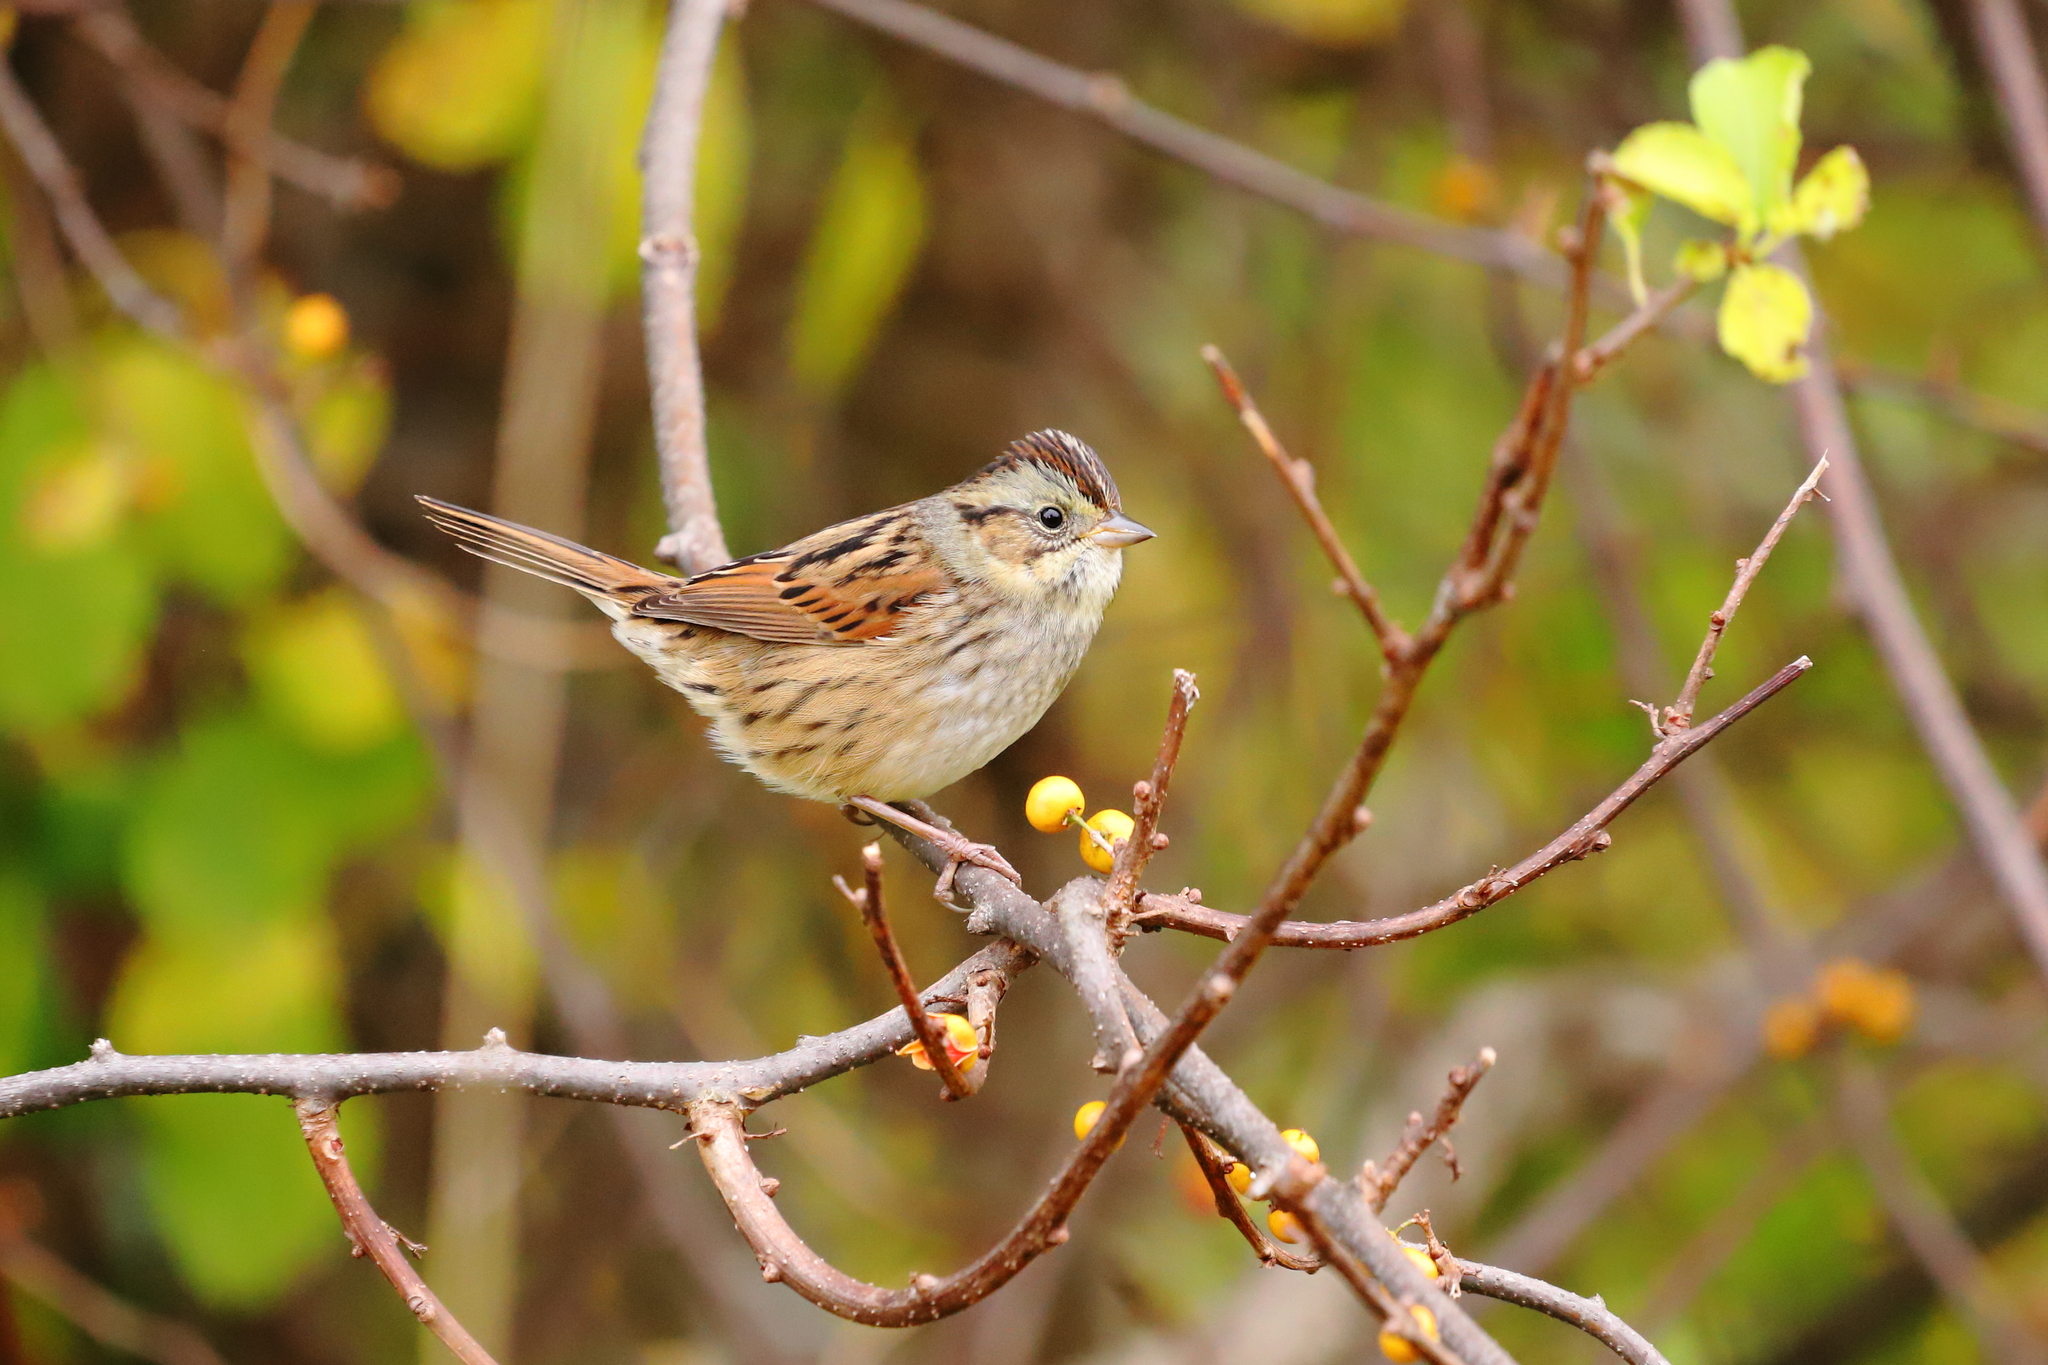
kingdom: Animalia
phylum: Chordata
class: Aves
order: Passeriformes
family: Passerellidae
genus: Melospiza
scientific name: Melospiza georgiana
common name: Swamp sparrow
